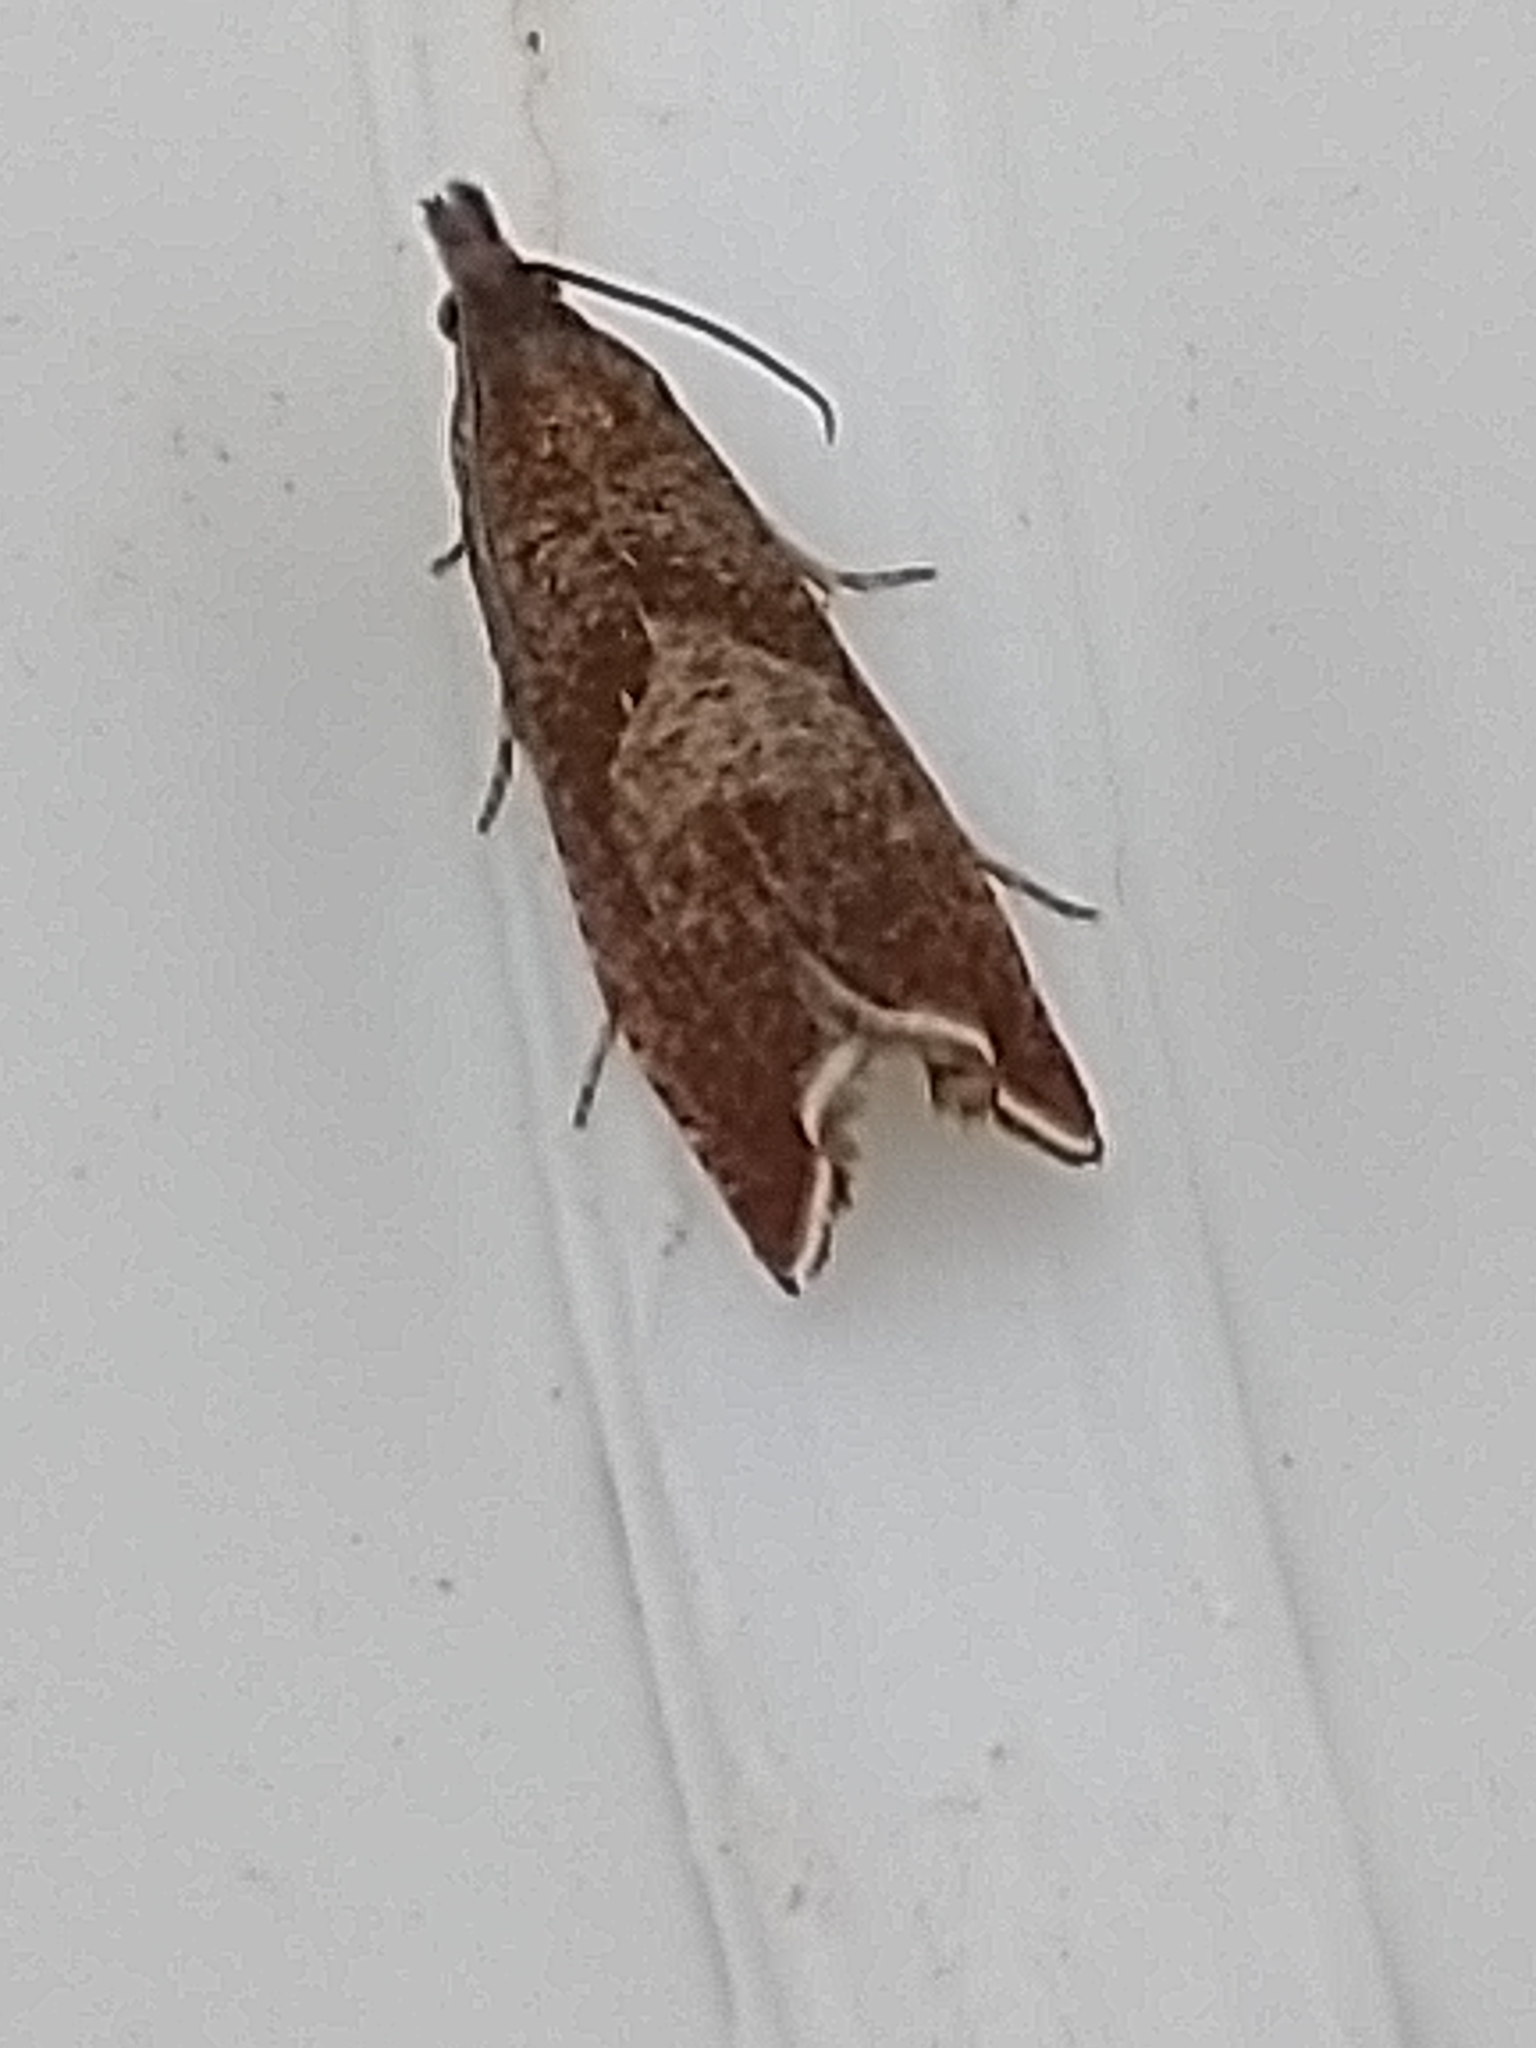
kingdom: Animalia
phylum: Arthropoda
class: Insecta
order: Lepidoptera
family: Tortricidae
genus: Dichrorampha
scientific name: Dichrorampha acuminatana
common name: Sharp-winged drill
